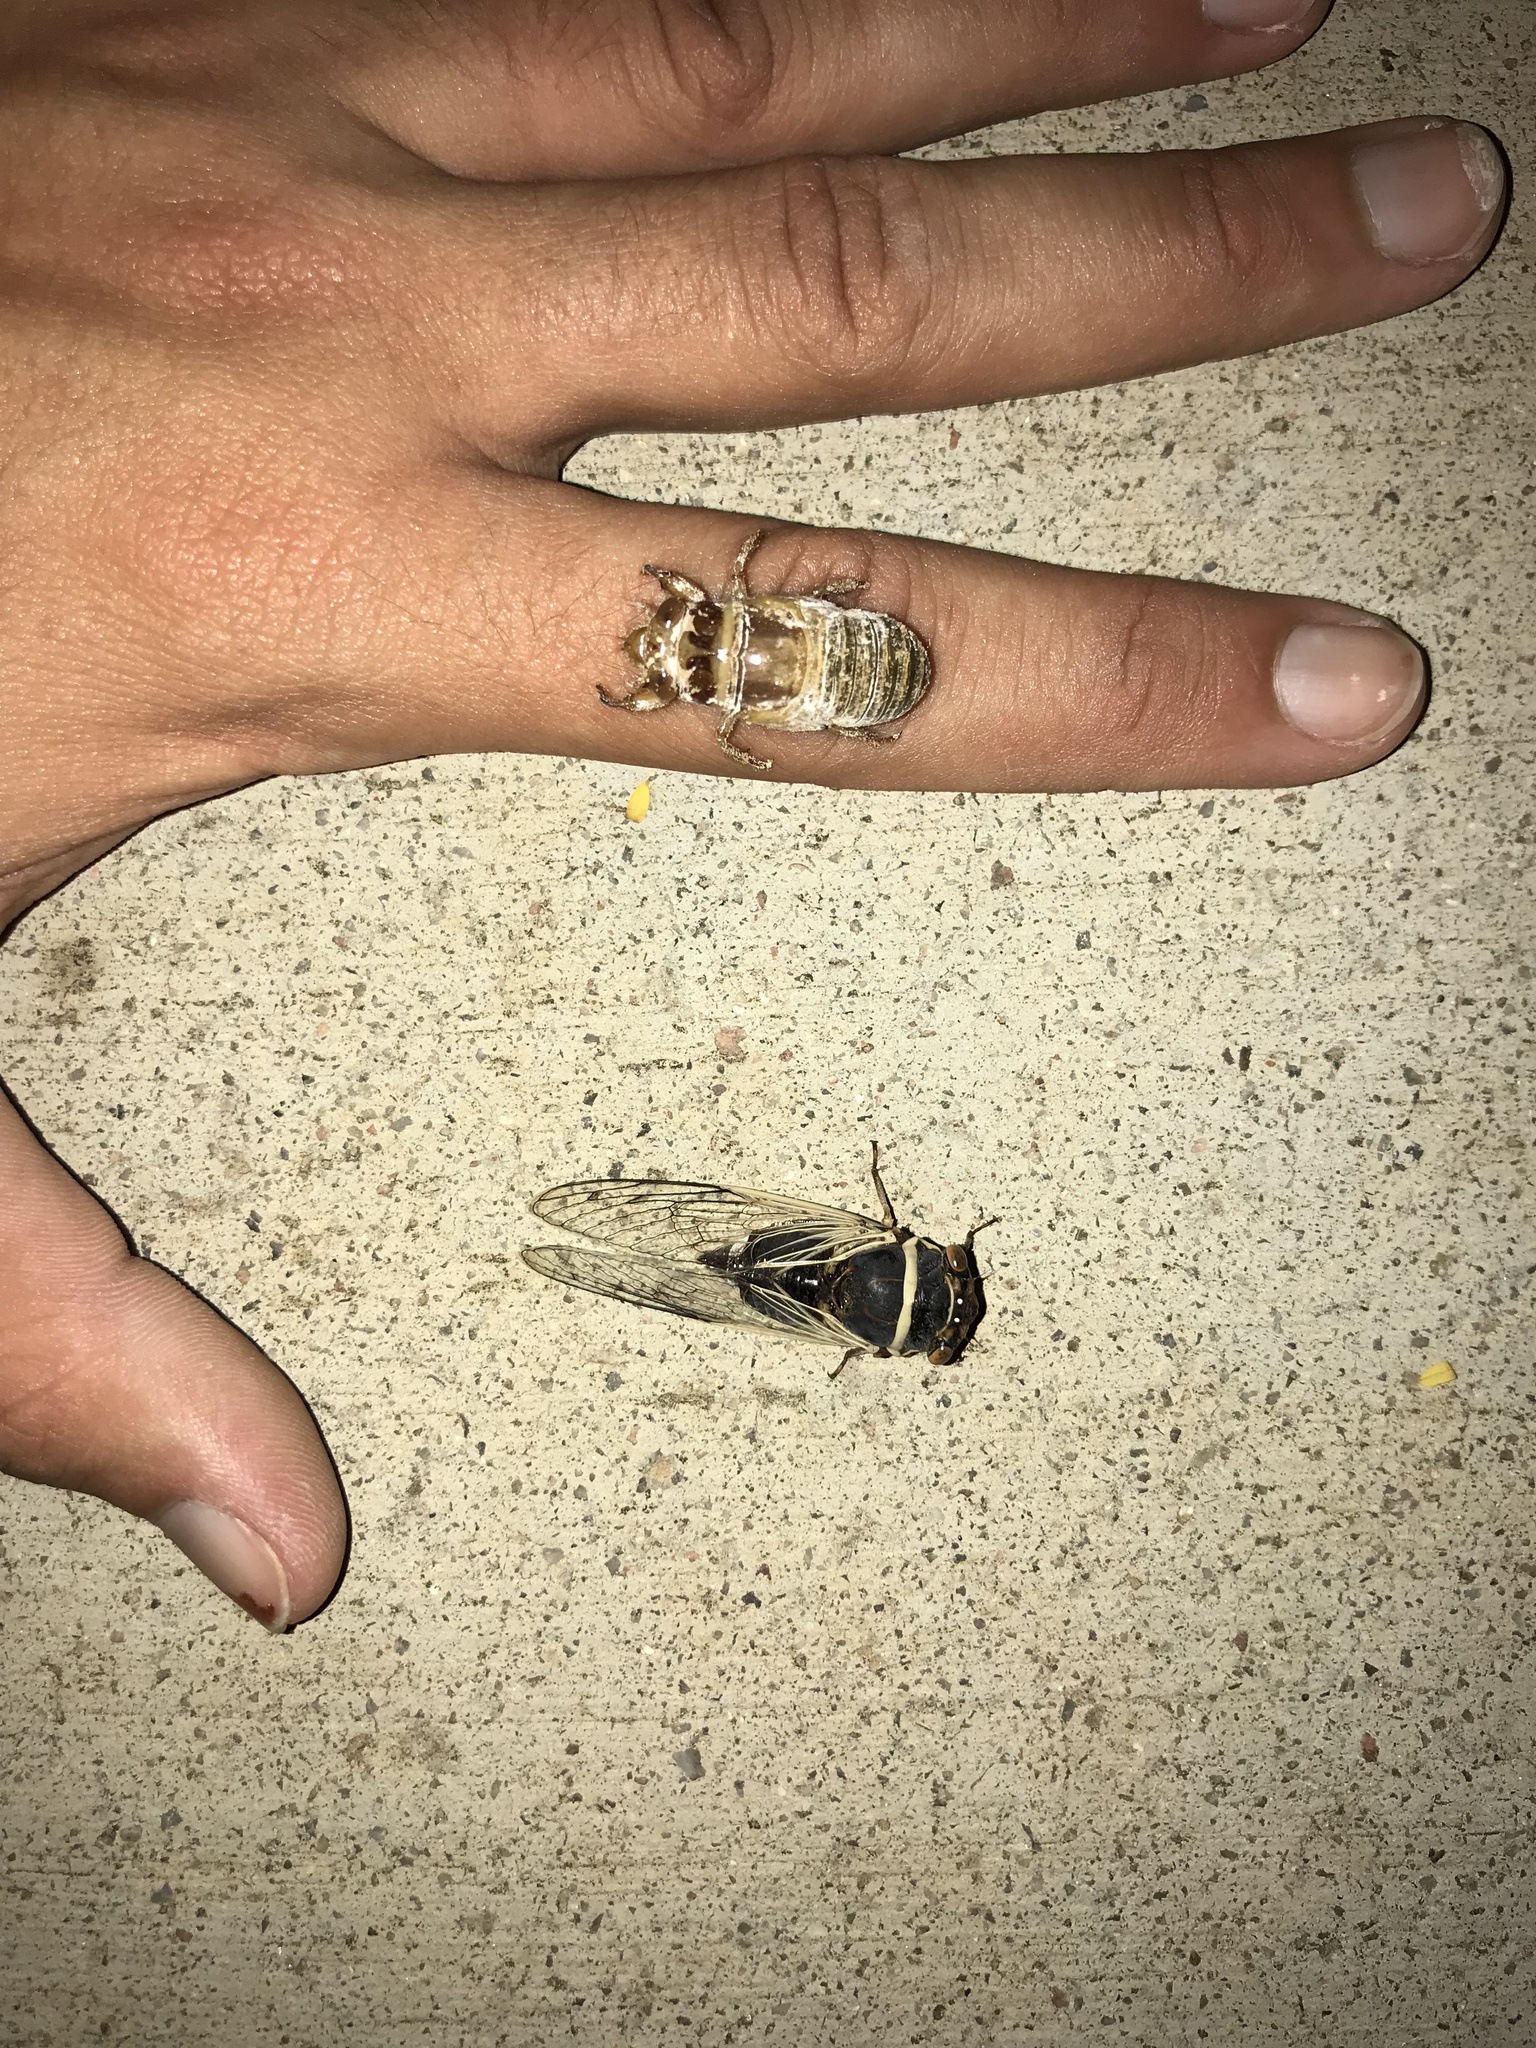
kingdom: Animalia
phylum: Arthropoda
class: Insecta
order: Hemiptera
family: Cicadidae
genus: Diceroprocta
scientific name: Diceroprocta apache
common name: Desert cicada
